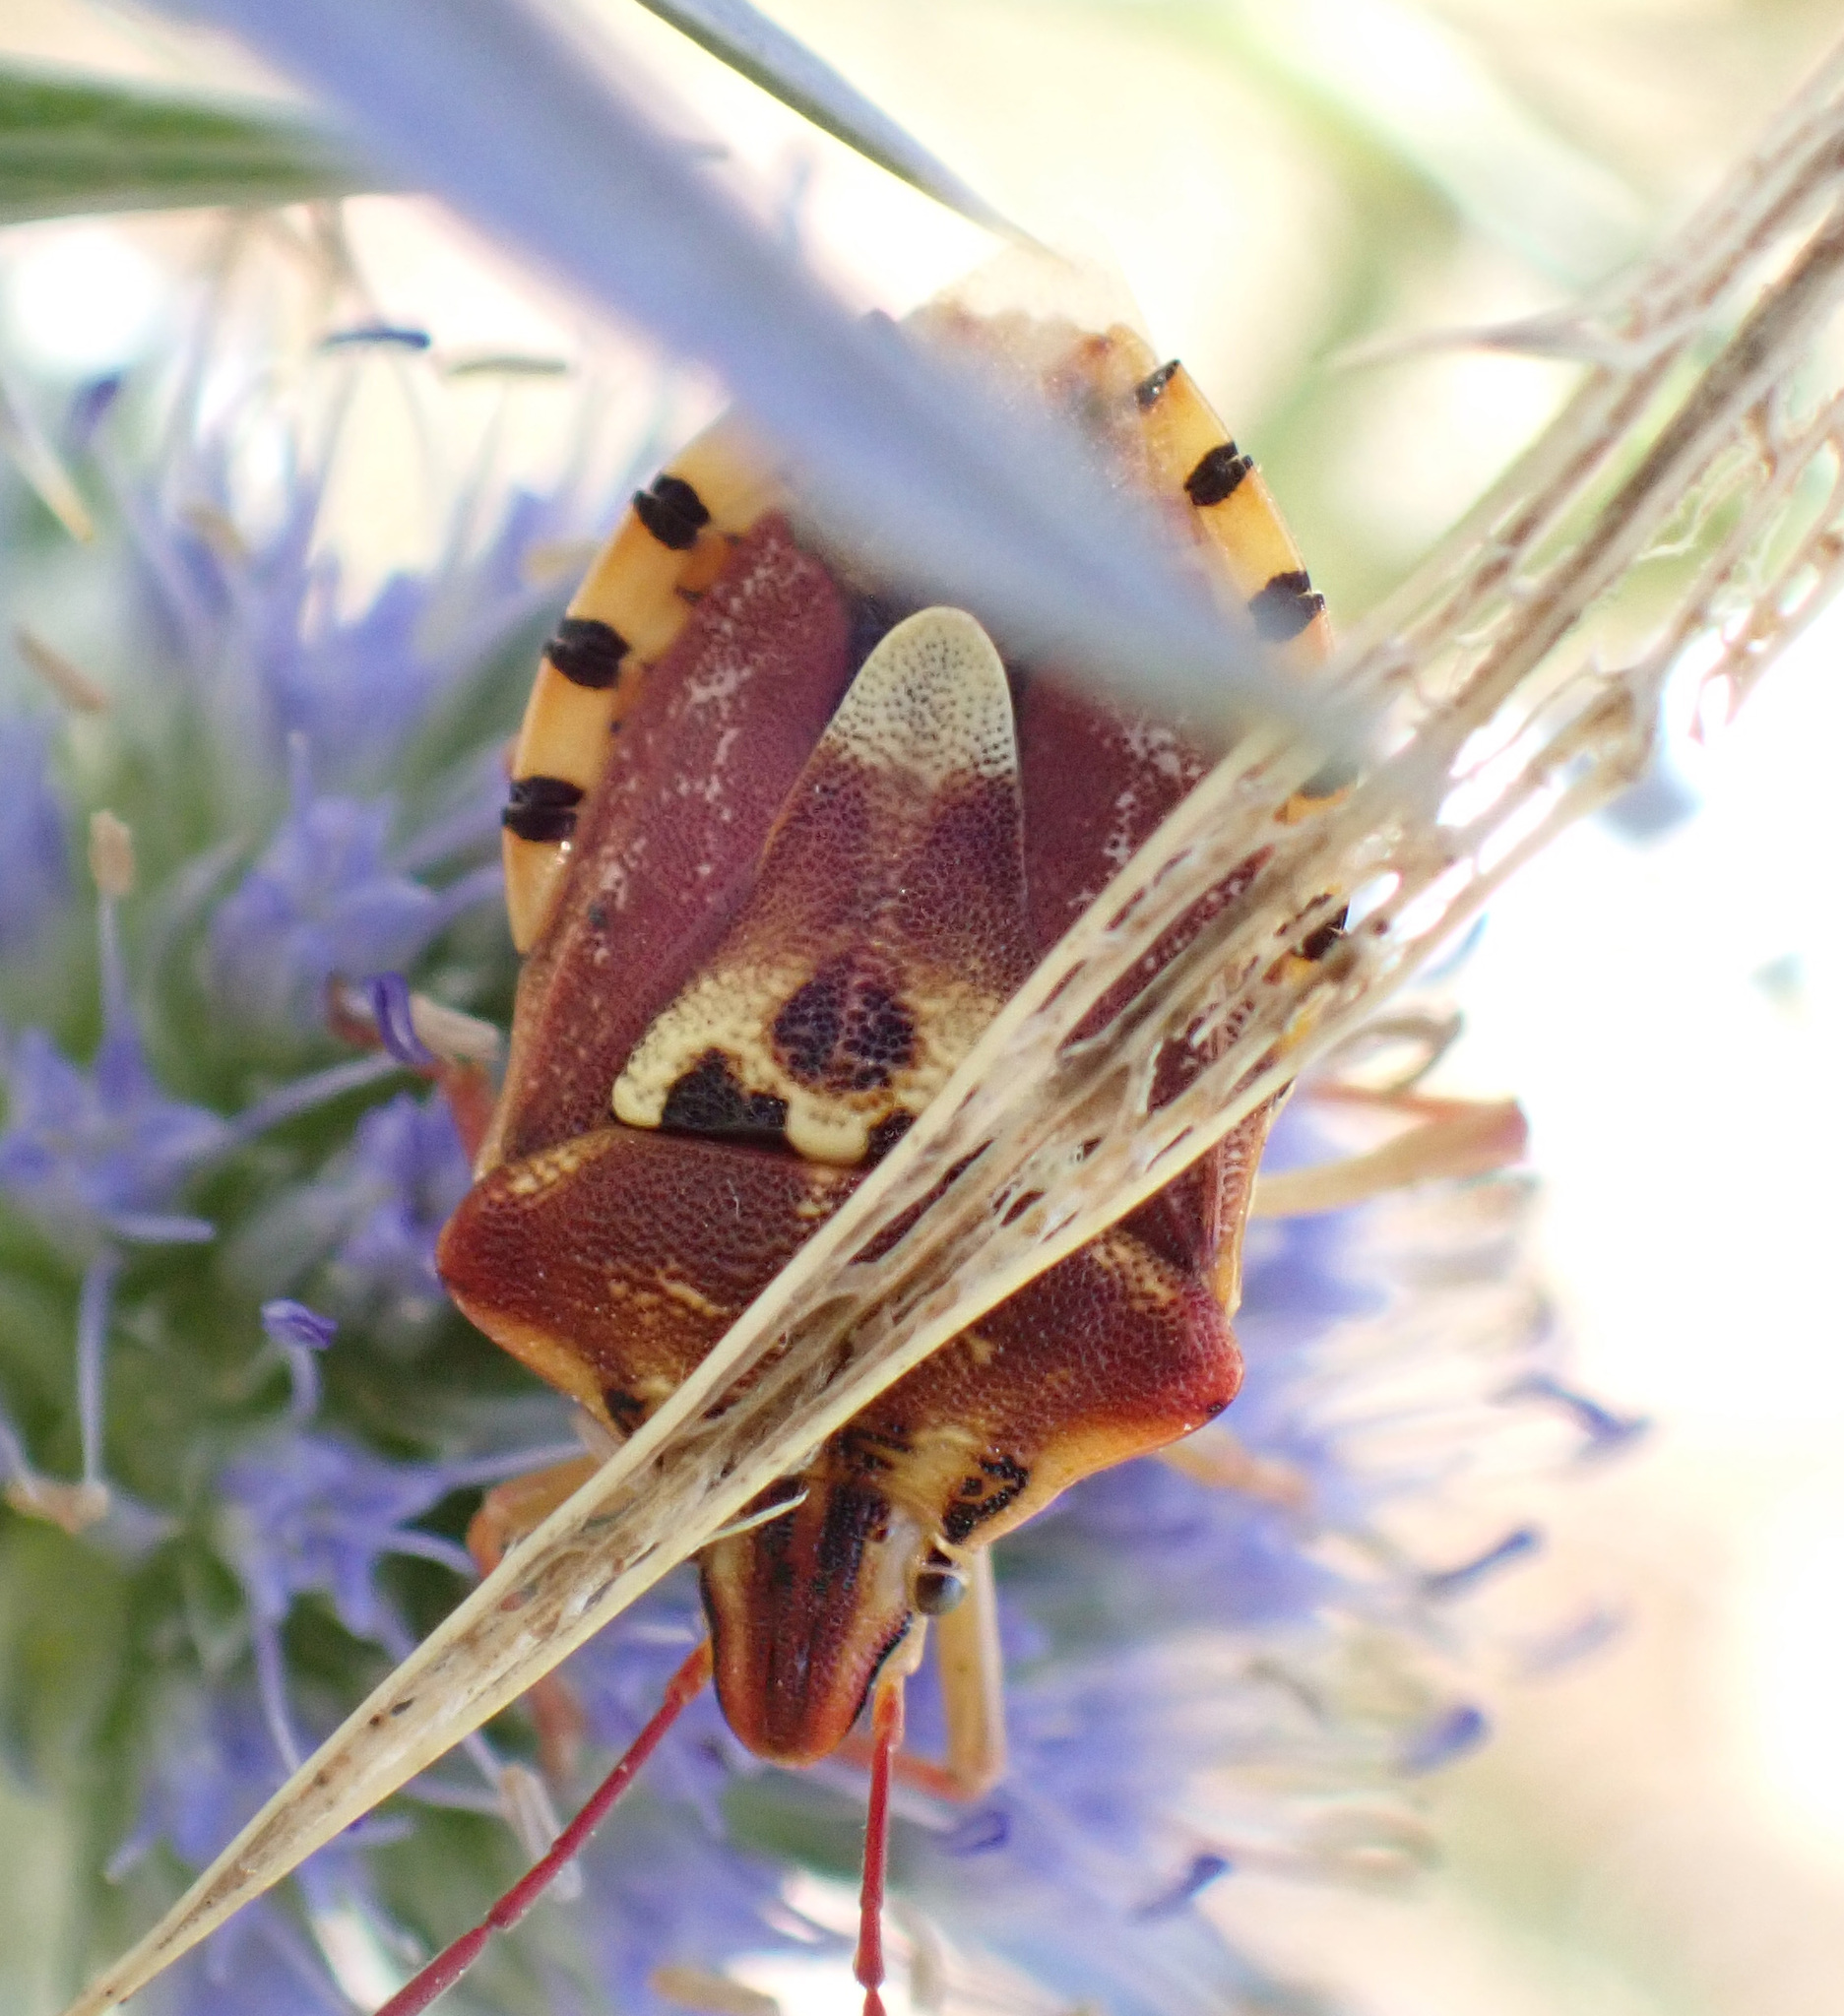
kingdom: Animalia
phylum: Arthropoda
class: Insecta
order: Hemiptera
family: Miridae
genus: Orthops
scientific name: Orthops kalmii
